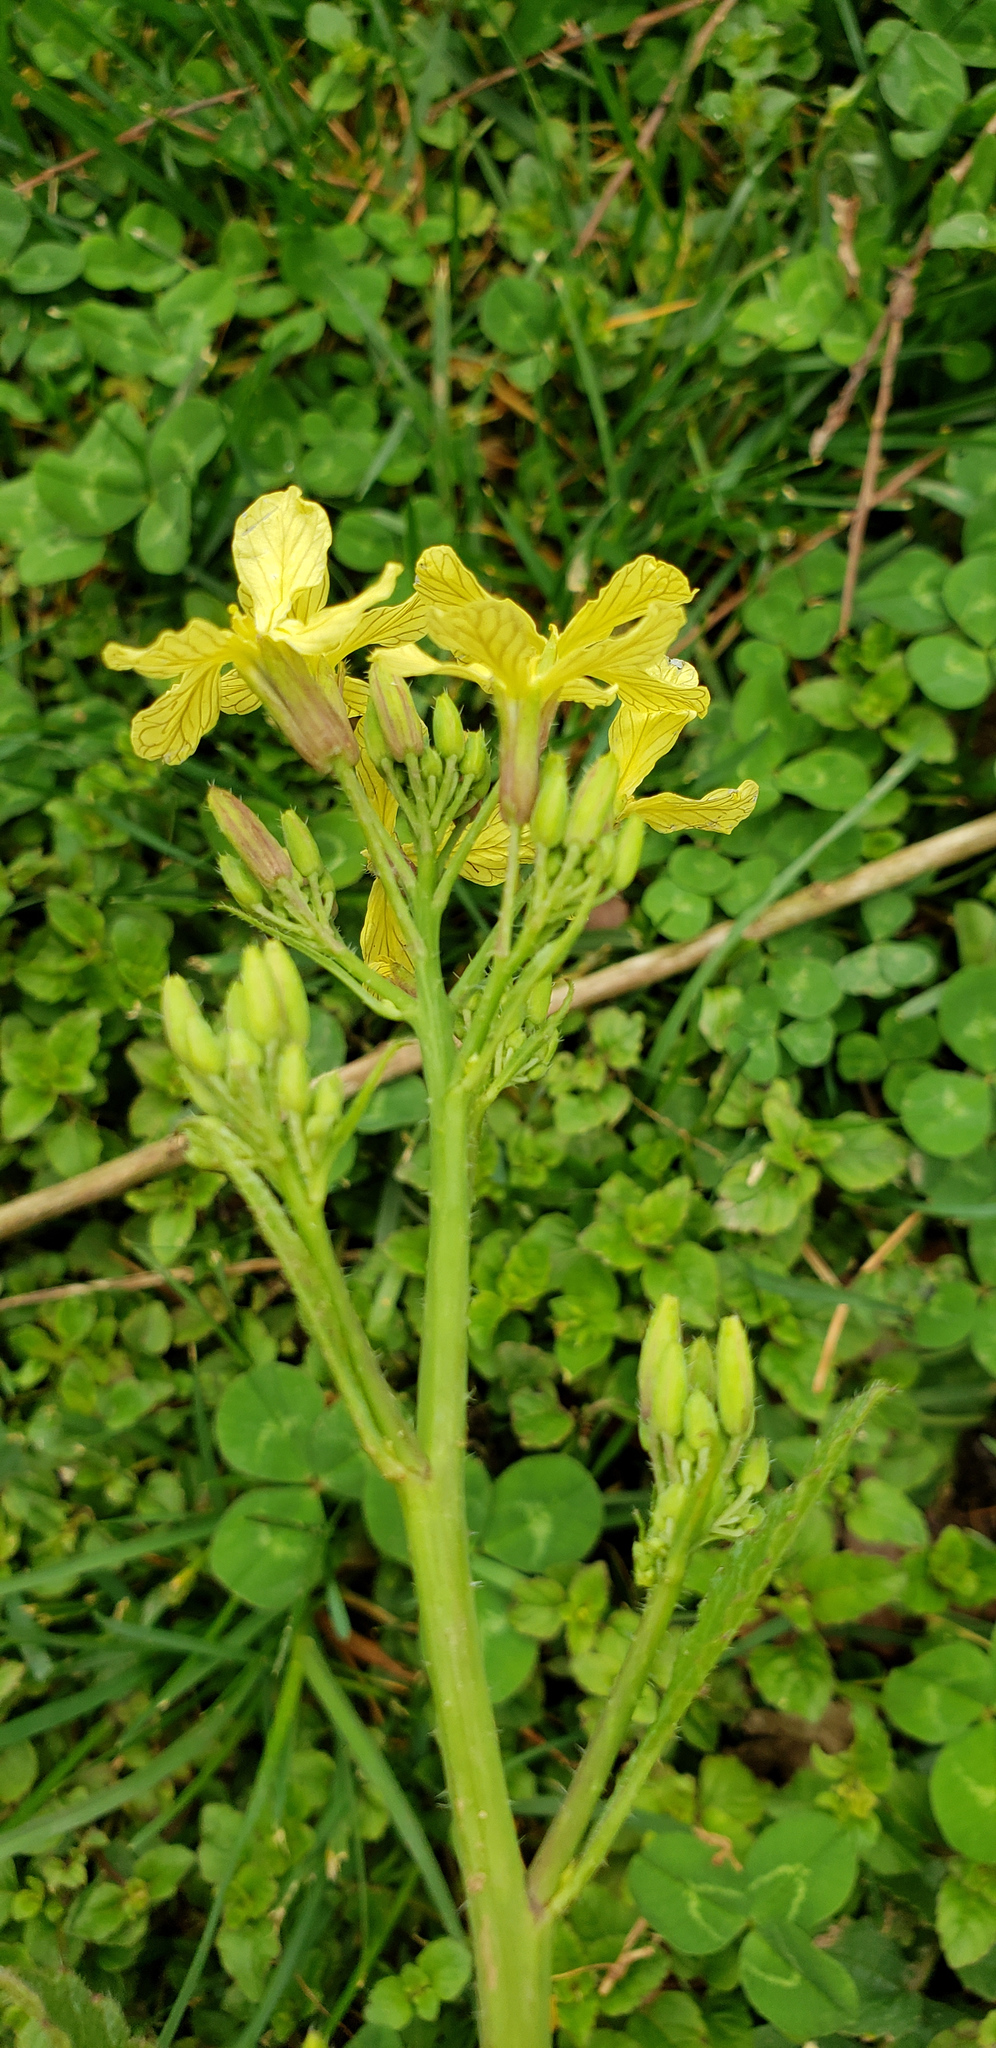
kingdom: Plantae
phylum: Tracheophyta
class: Magnoliopsida
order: Brassicales
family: Brassicaceae
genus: Raphanus
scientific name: Raphanus raphanistrum
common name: Wild radish
